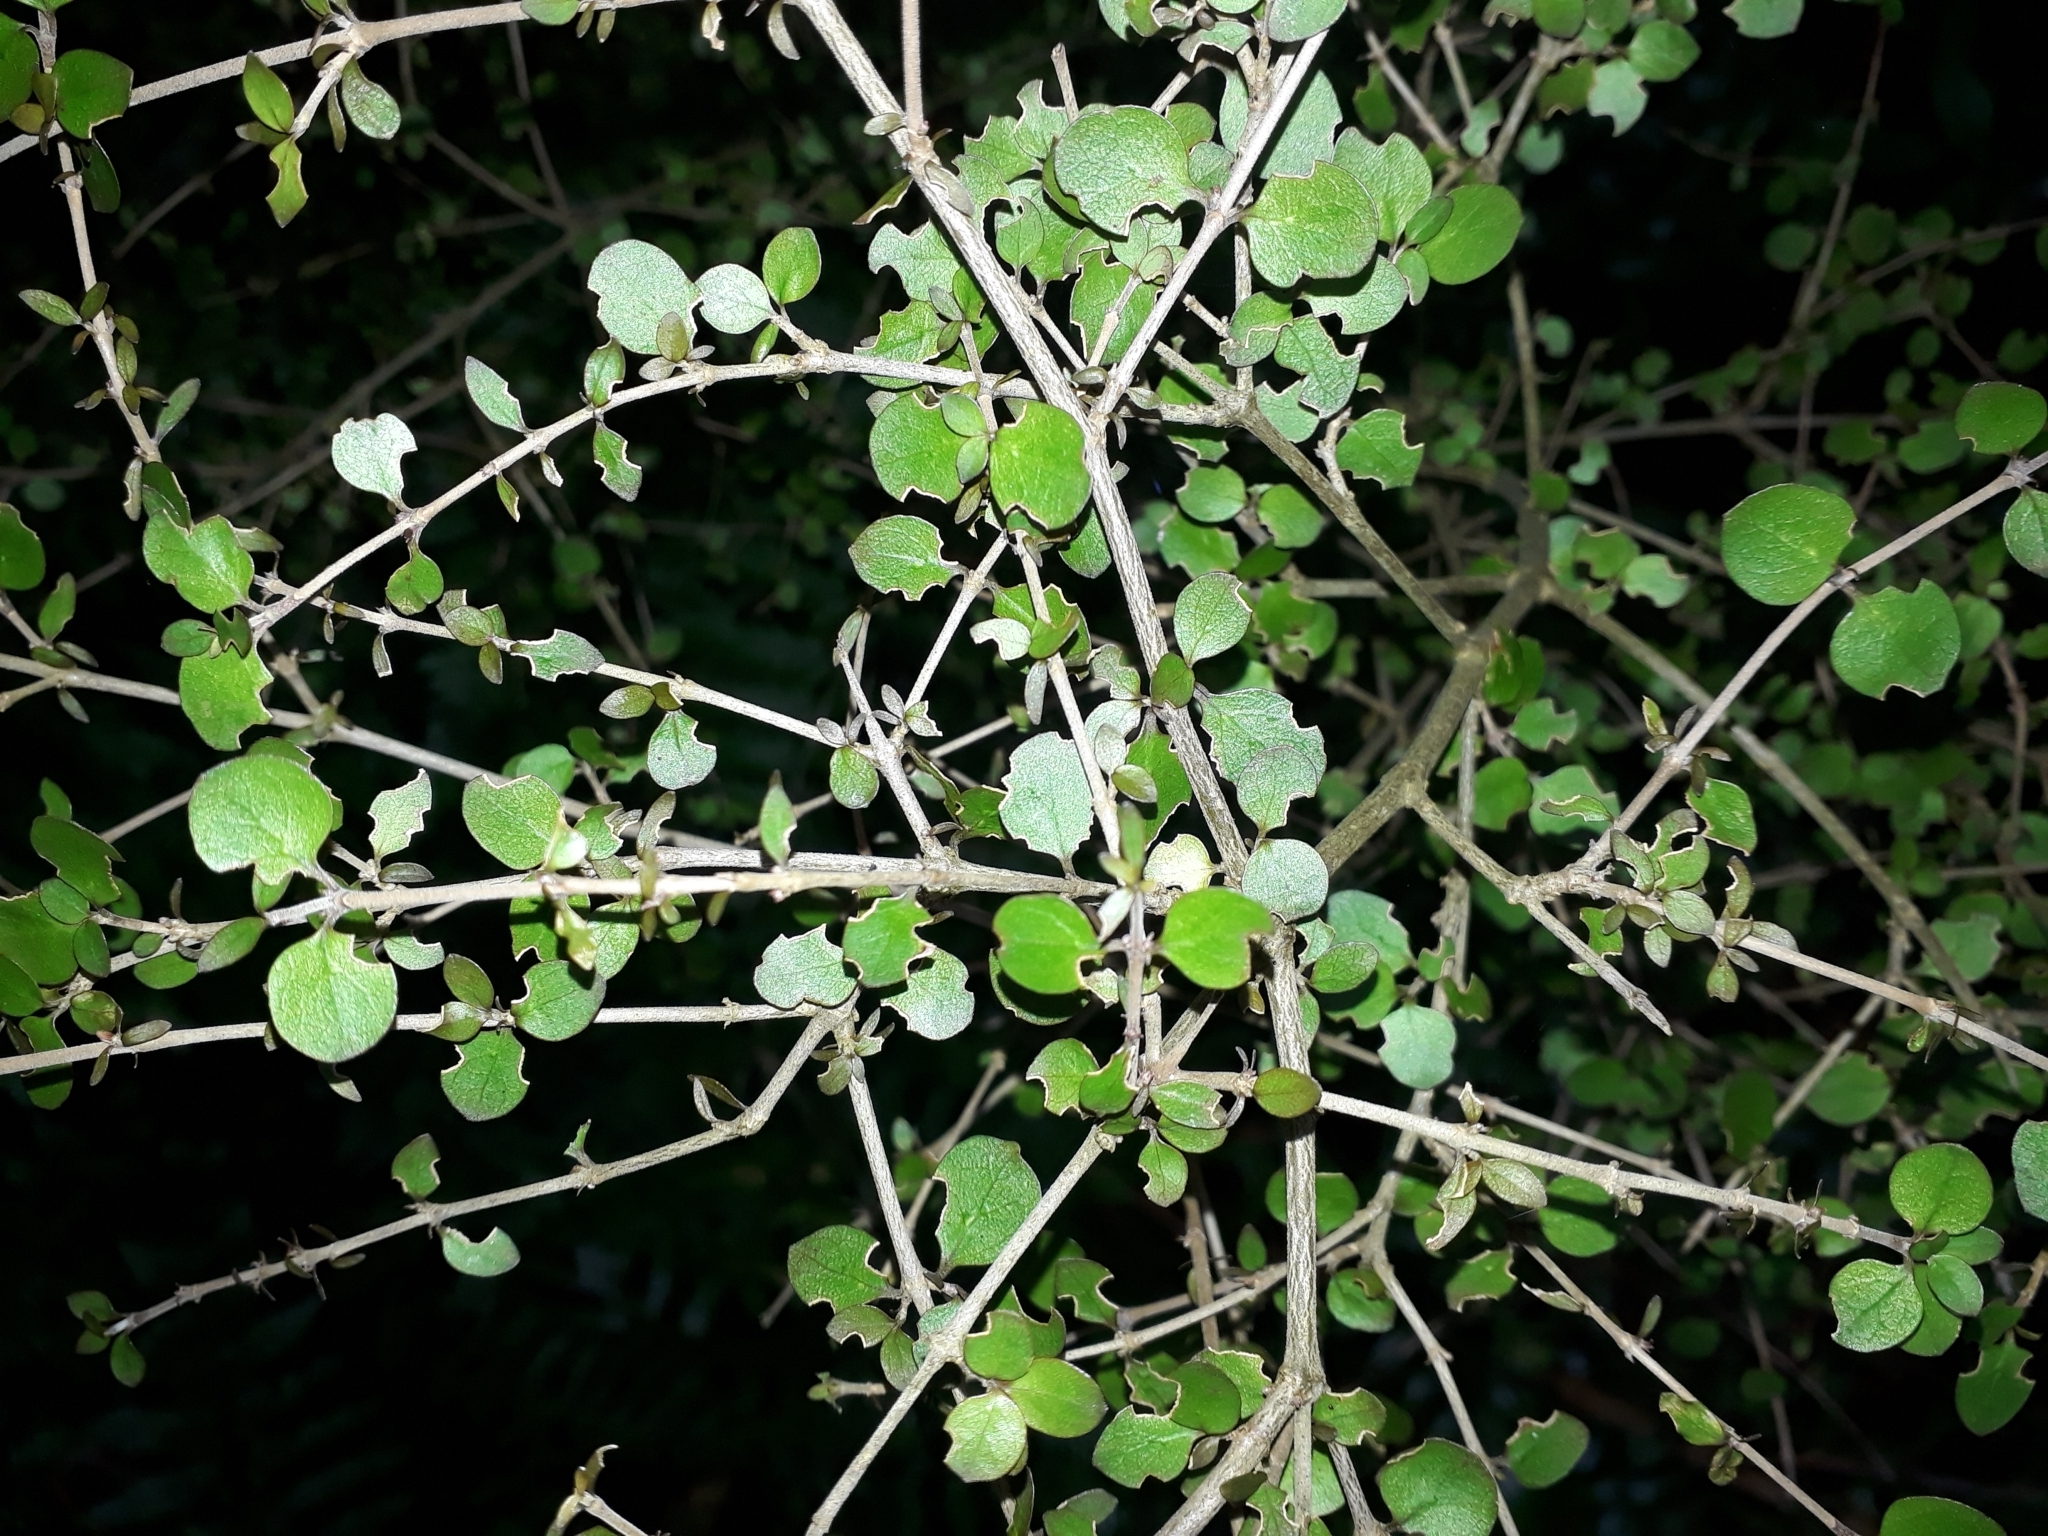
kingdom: Plantae
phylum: Tracheophyta
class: Magnoliopsida
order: Gentianales
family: Rubiaceae
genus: Coprosma
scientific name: Coprosma rhamnoides
